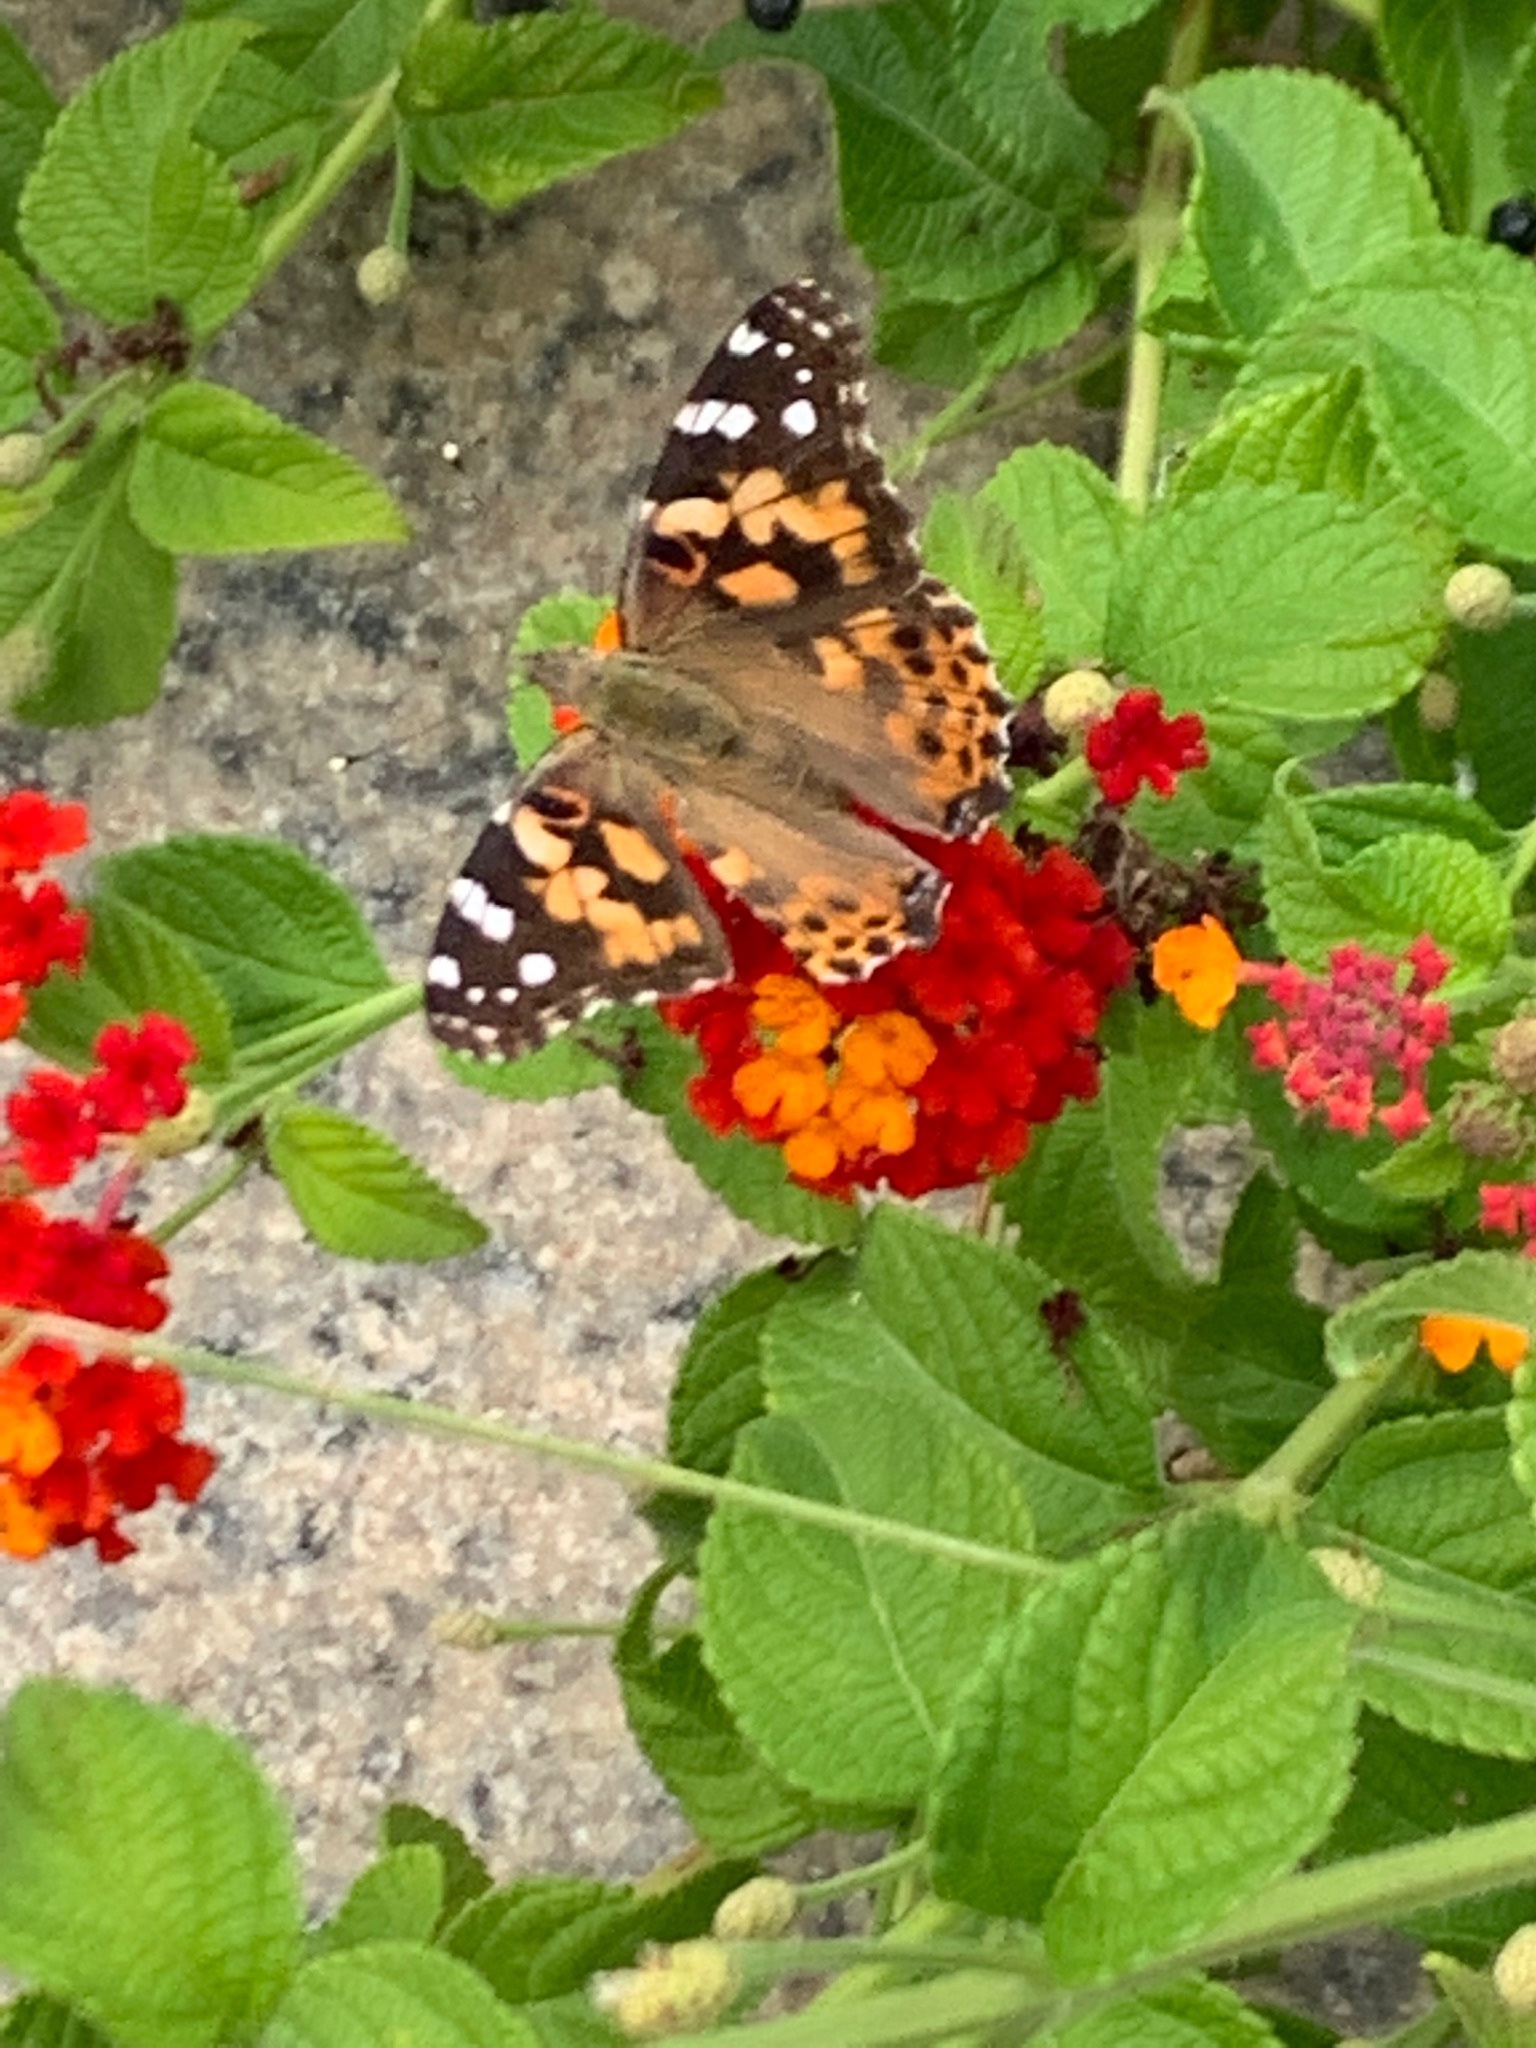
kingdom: Animalia
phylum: Arthropoda
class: Insecta
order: Lepidoptera
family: Nymphalidae
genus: Vanessa
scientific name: Vanessa cardui
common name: Painted lady
